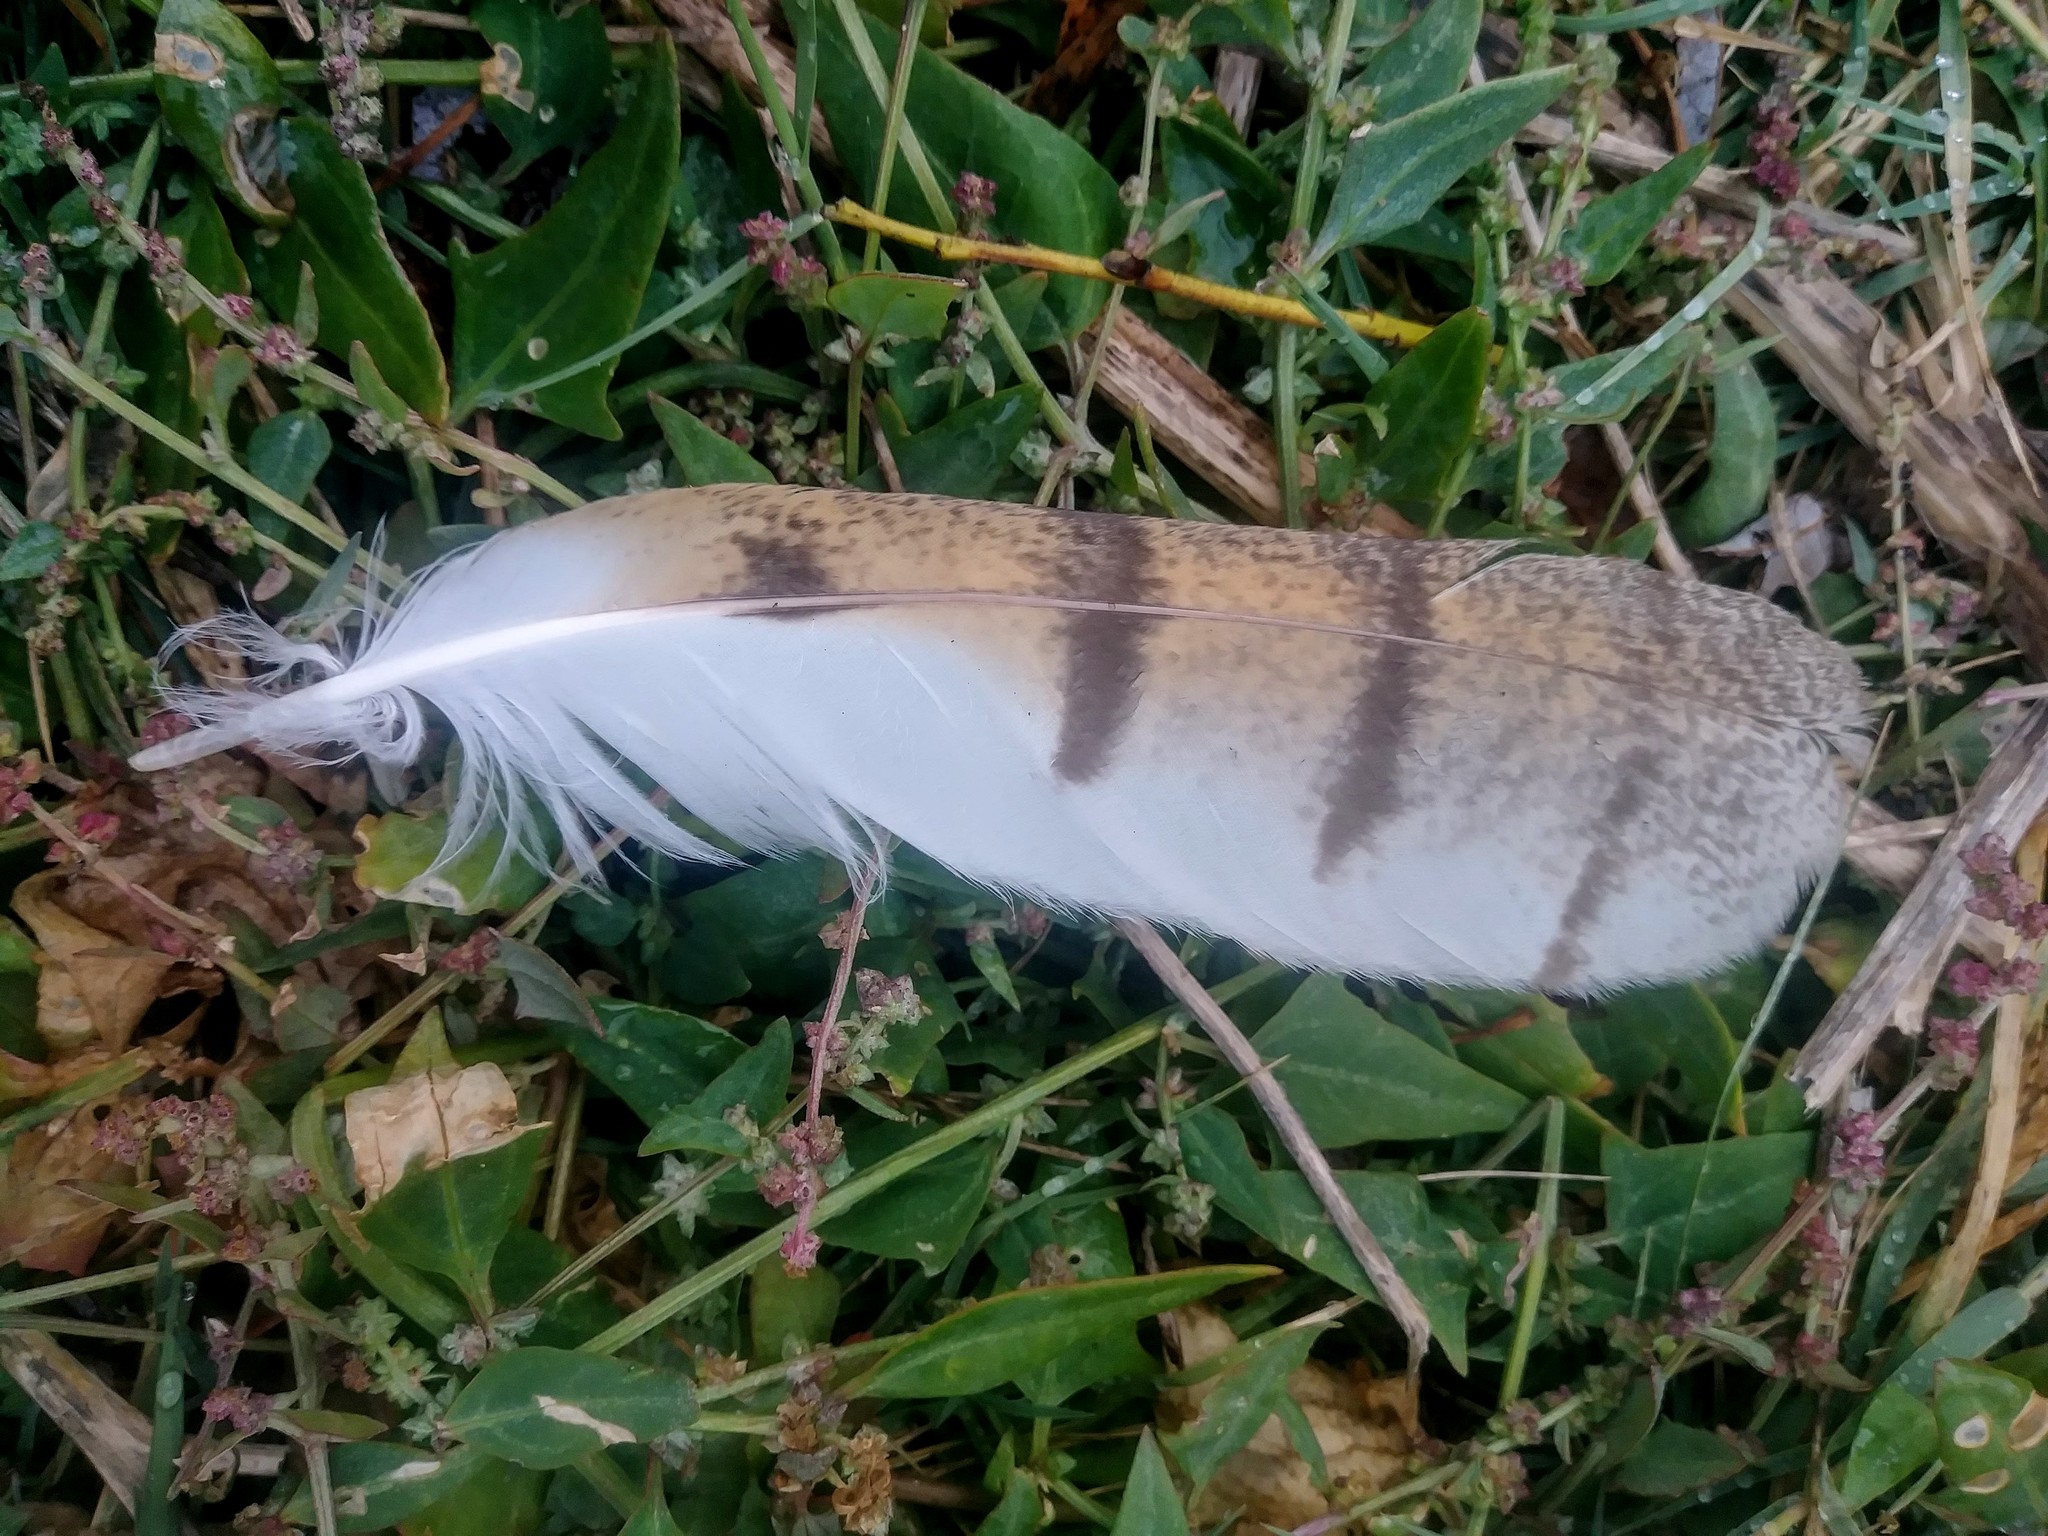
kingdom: Animalia
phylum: Chordata
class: Aves
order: Strigiformes
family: Tytonidae
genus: Tyto
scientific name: Tyto furcata
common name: American barn owl
